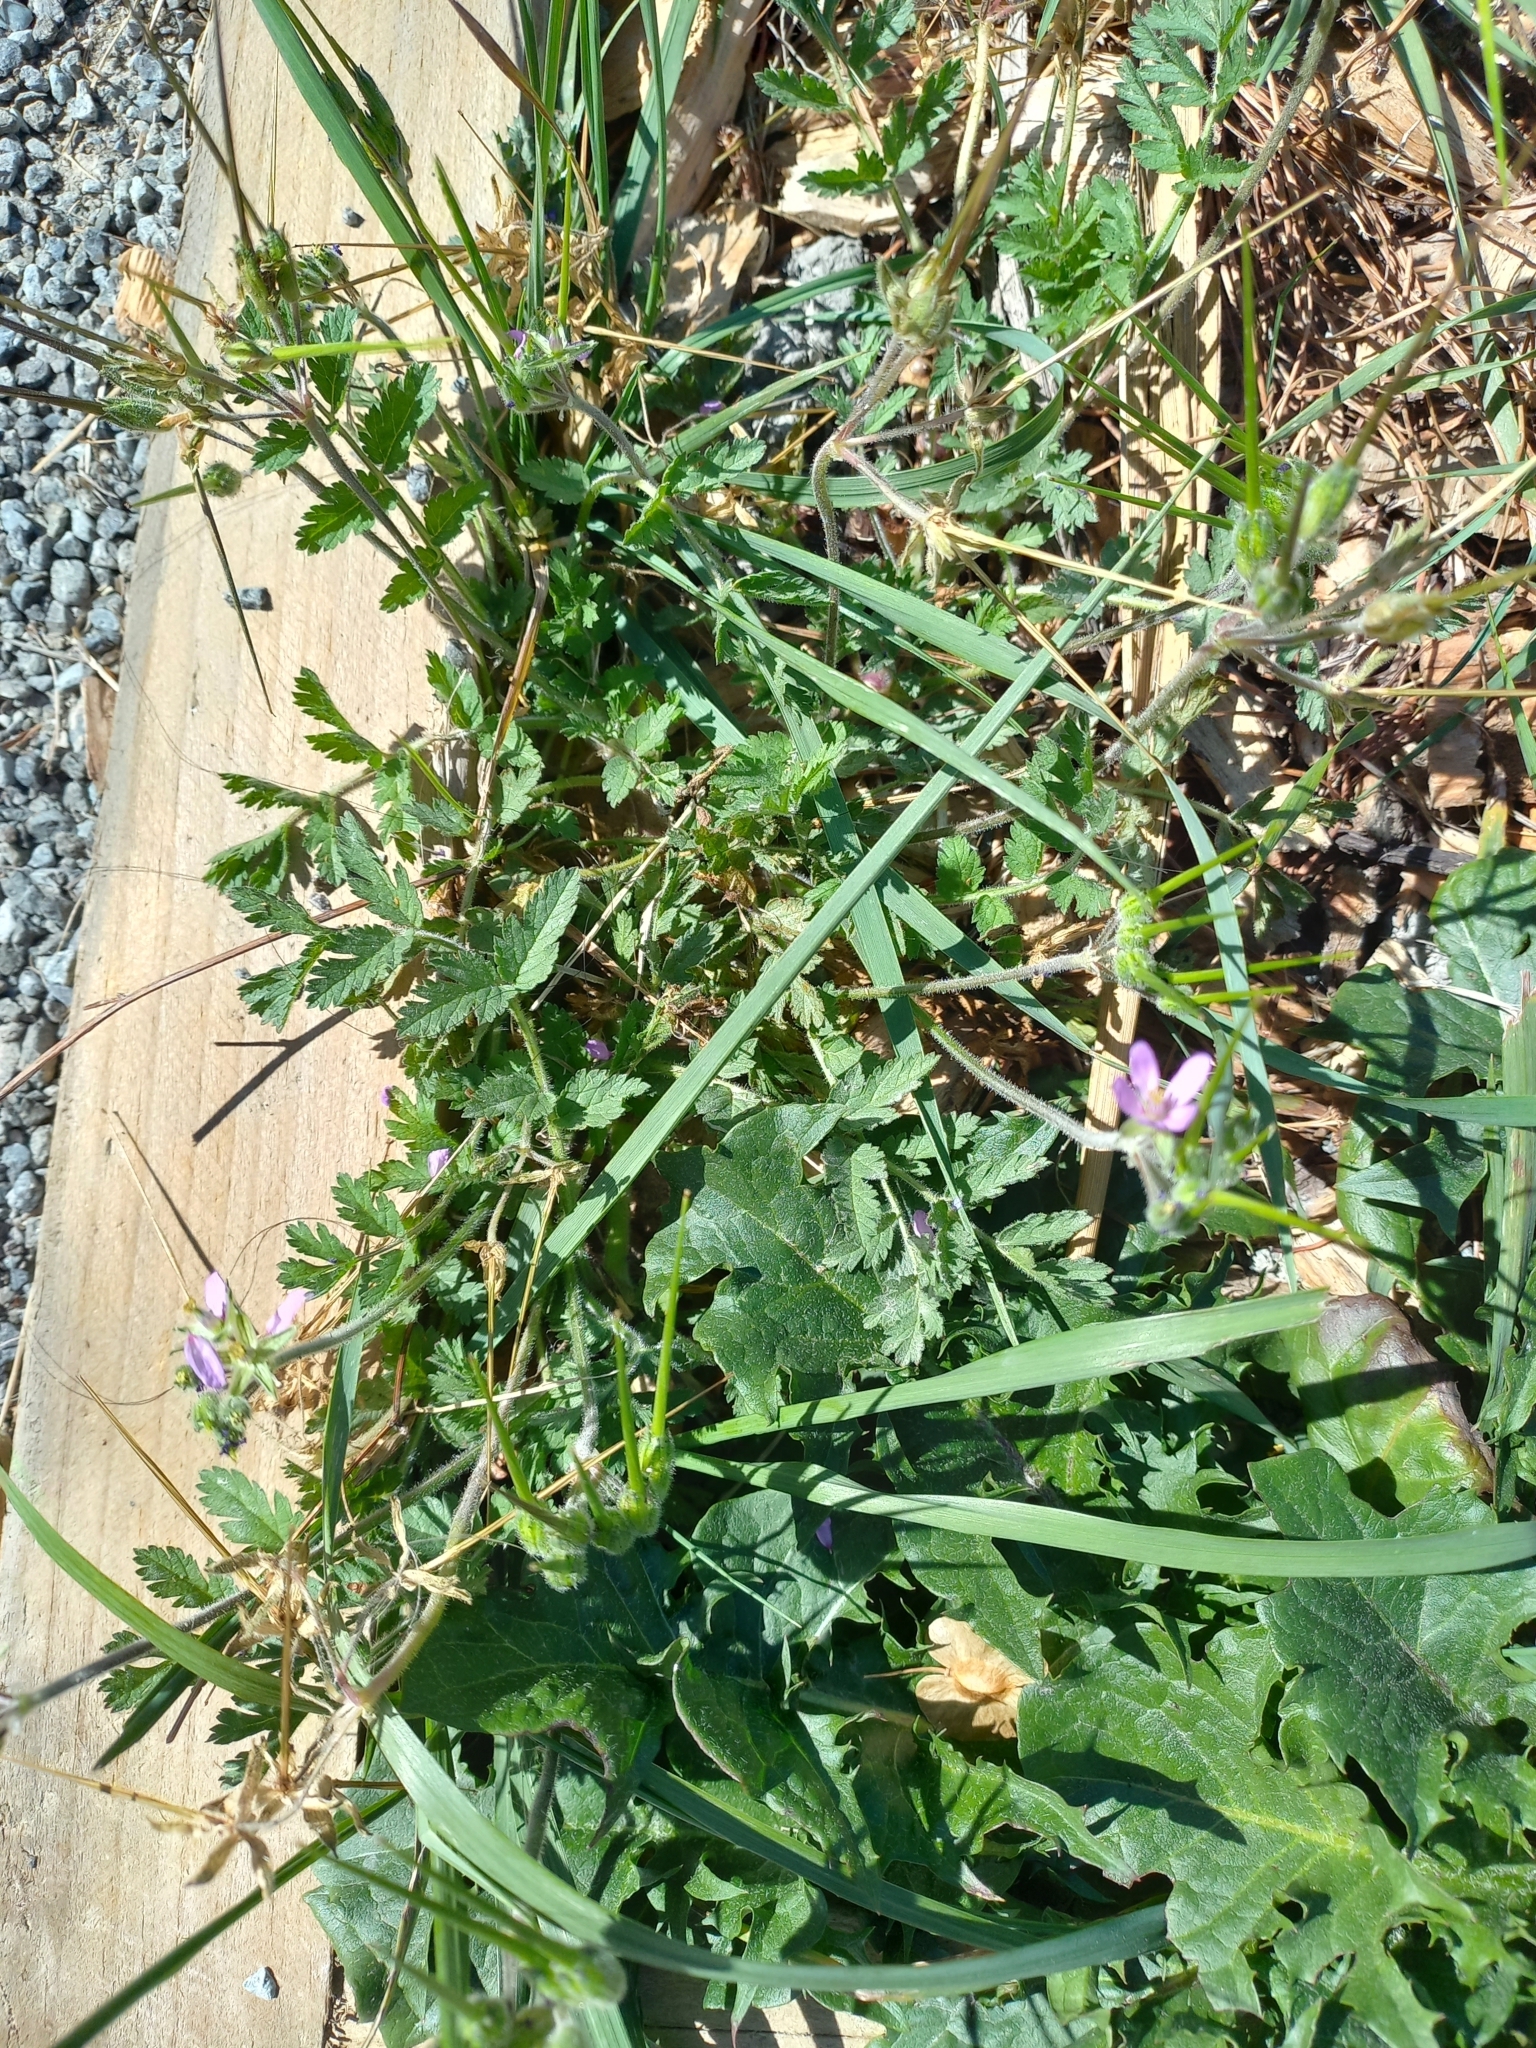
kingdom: Plantae
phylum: Tracheophyta
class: Magnoliopsida
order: Geraniales
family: Geraniaceae
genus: Erodium
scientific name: Erodium moschatum
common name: Musk stork's-bill
